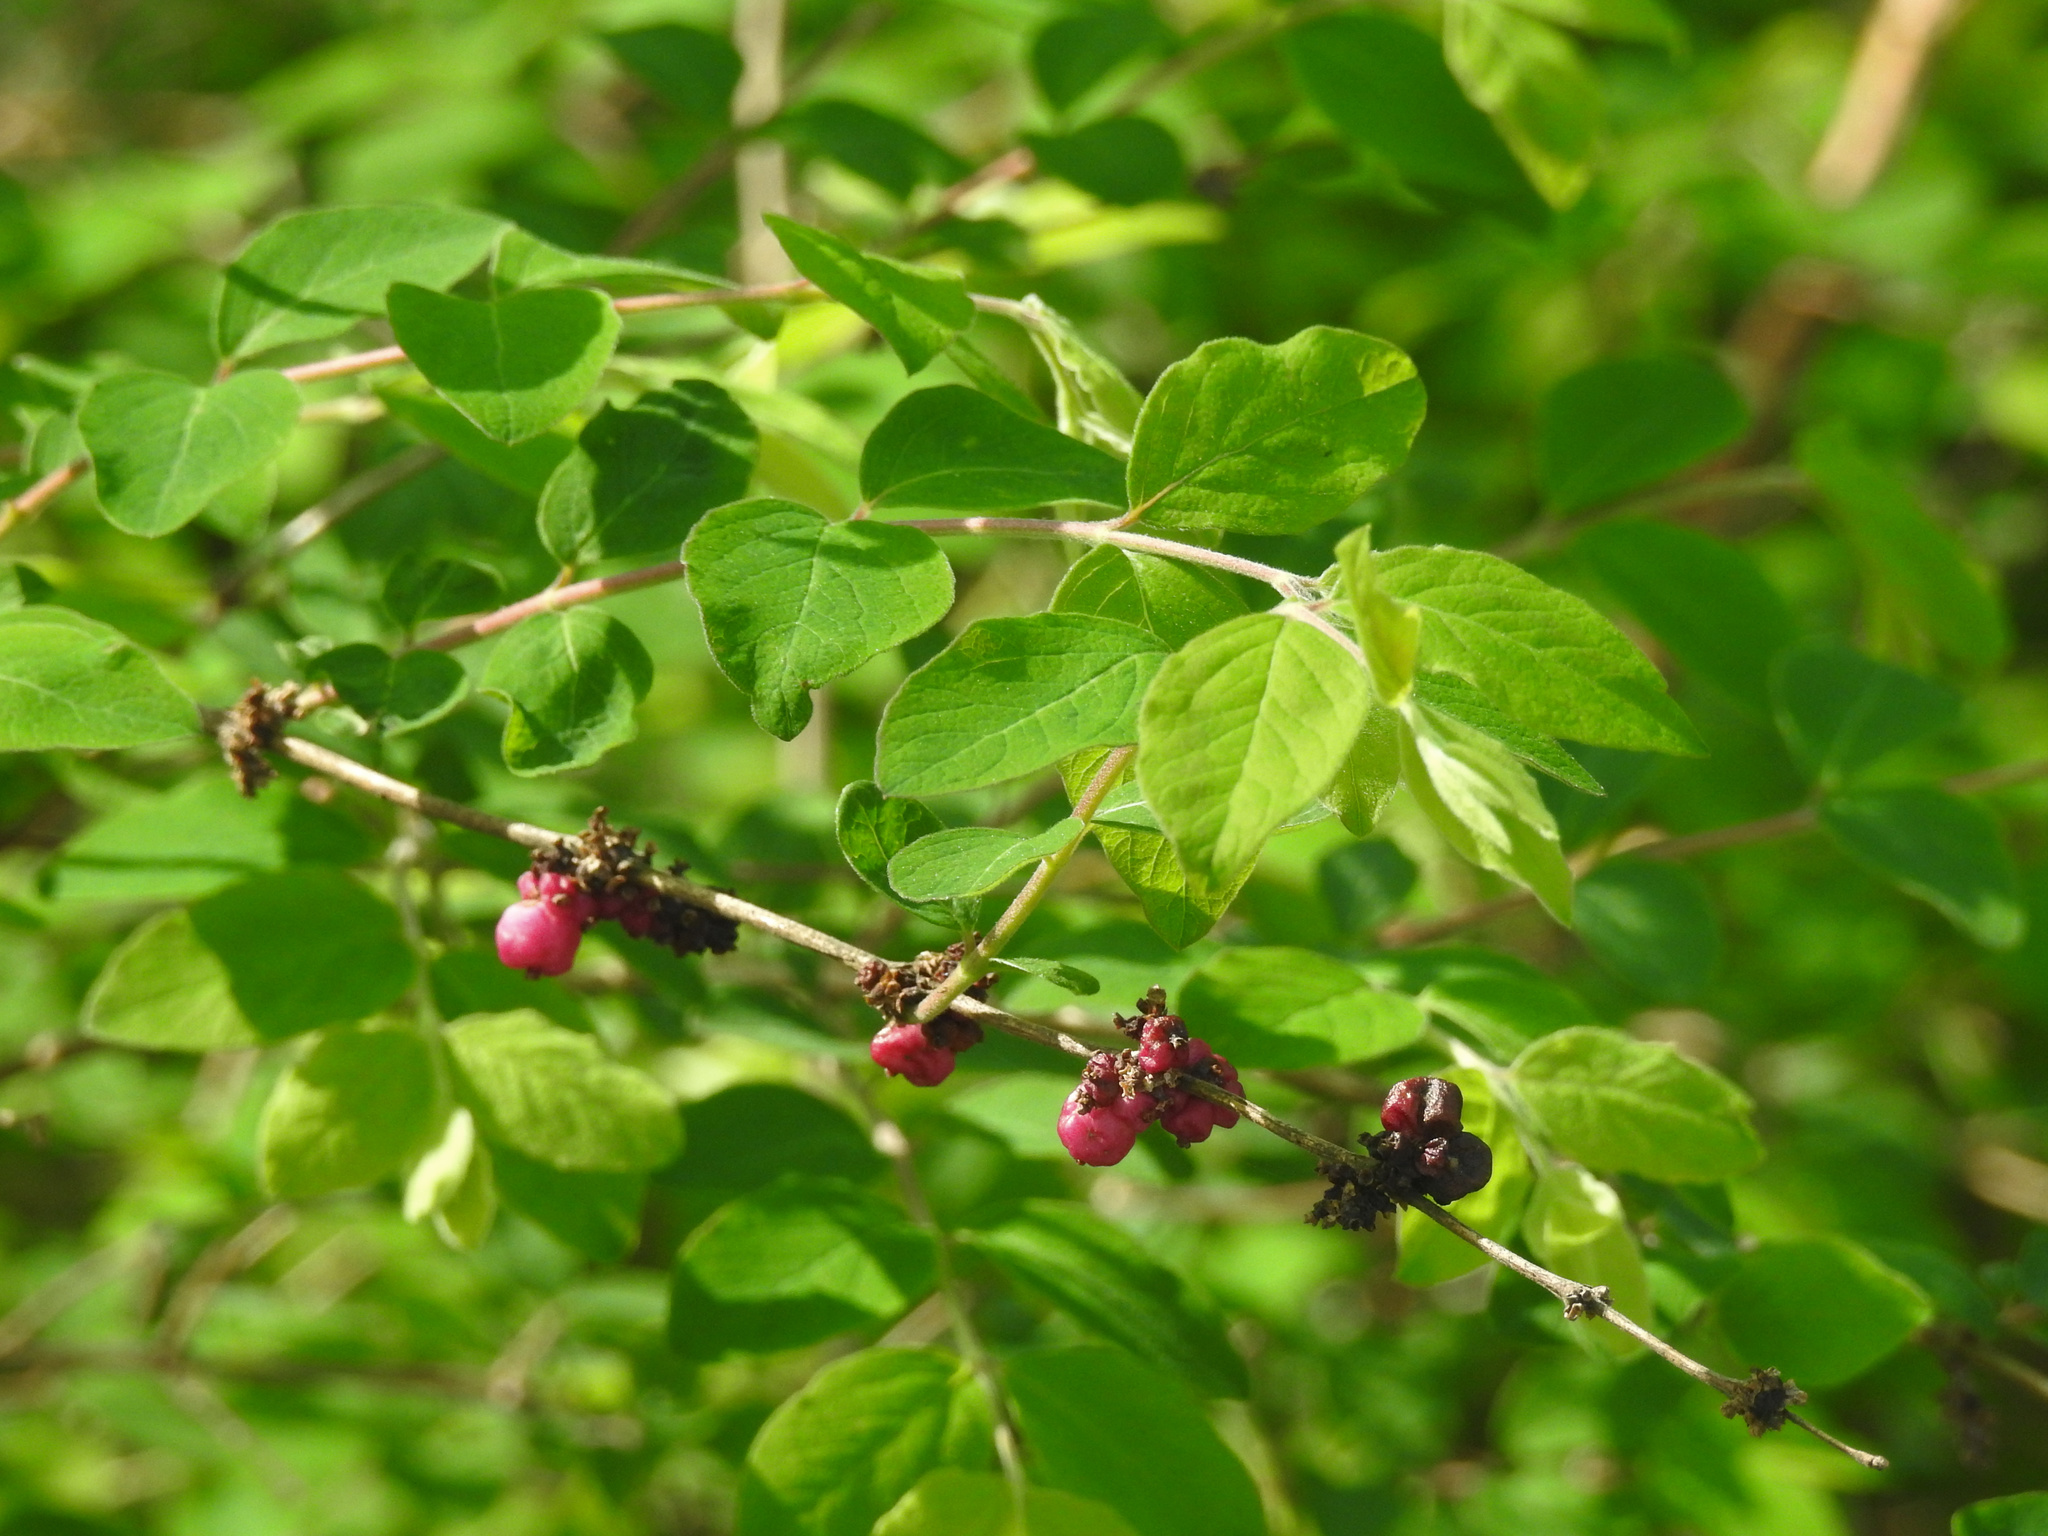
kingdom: Plantae
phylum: Tracheophyta
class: Magnoliopsida
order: Dipsacales
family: Caprifoliaceae
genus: Symphoricarpos
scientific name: Symphoricarpos orbiculatus
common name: Coralberry
